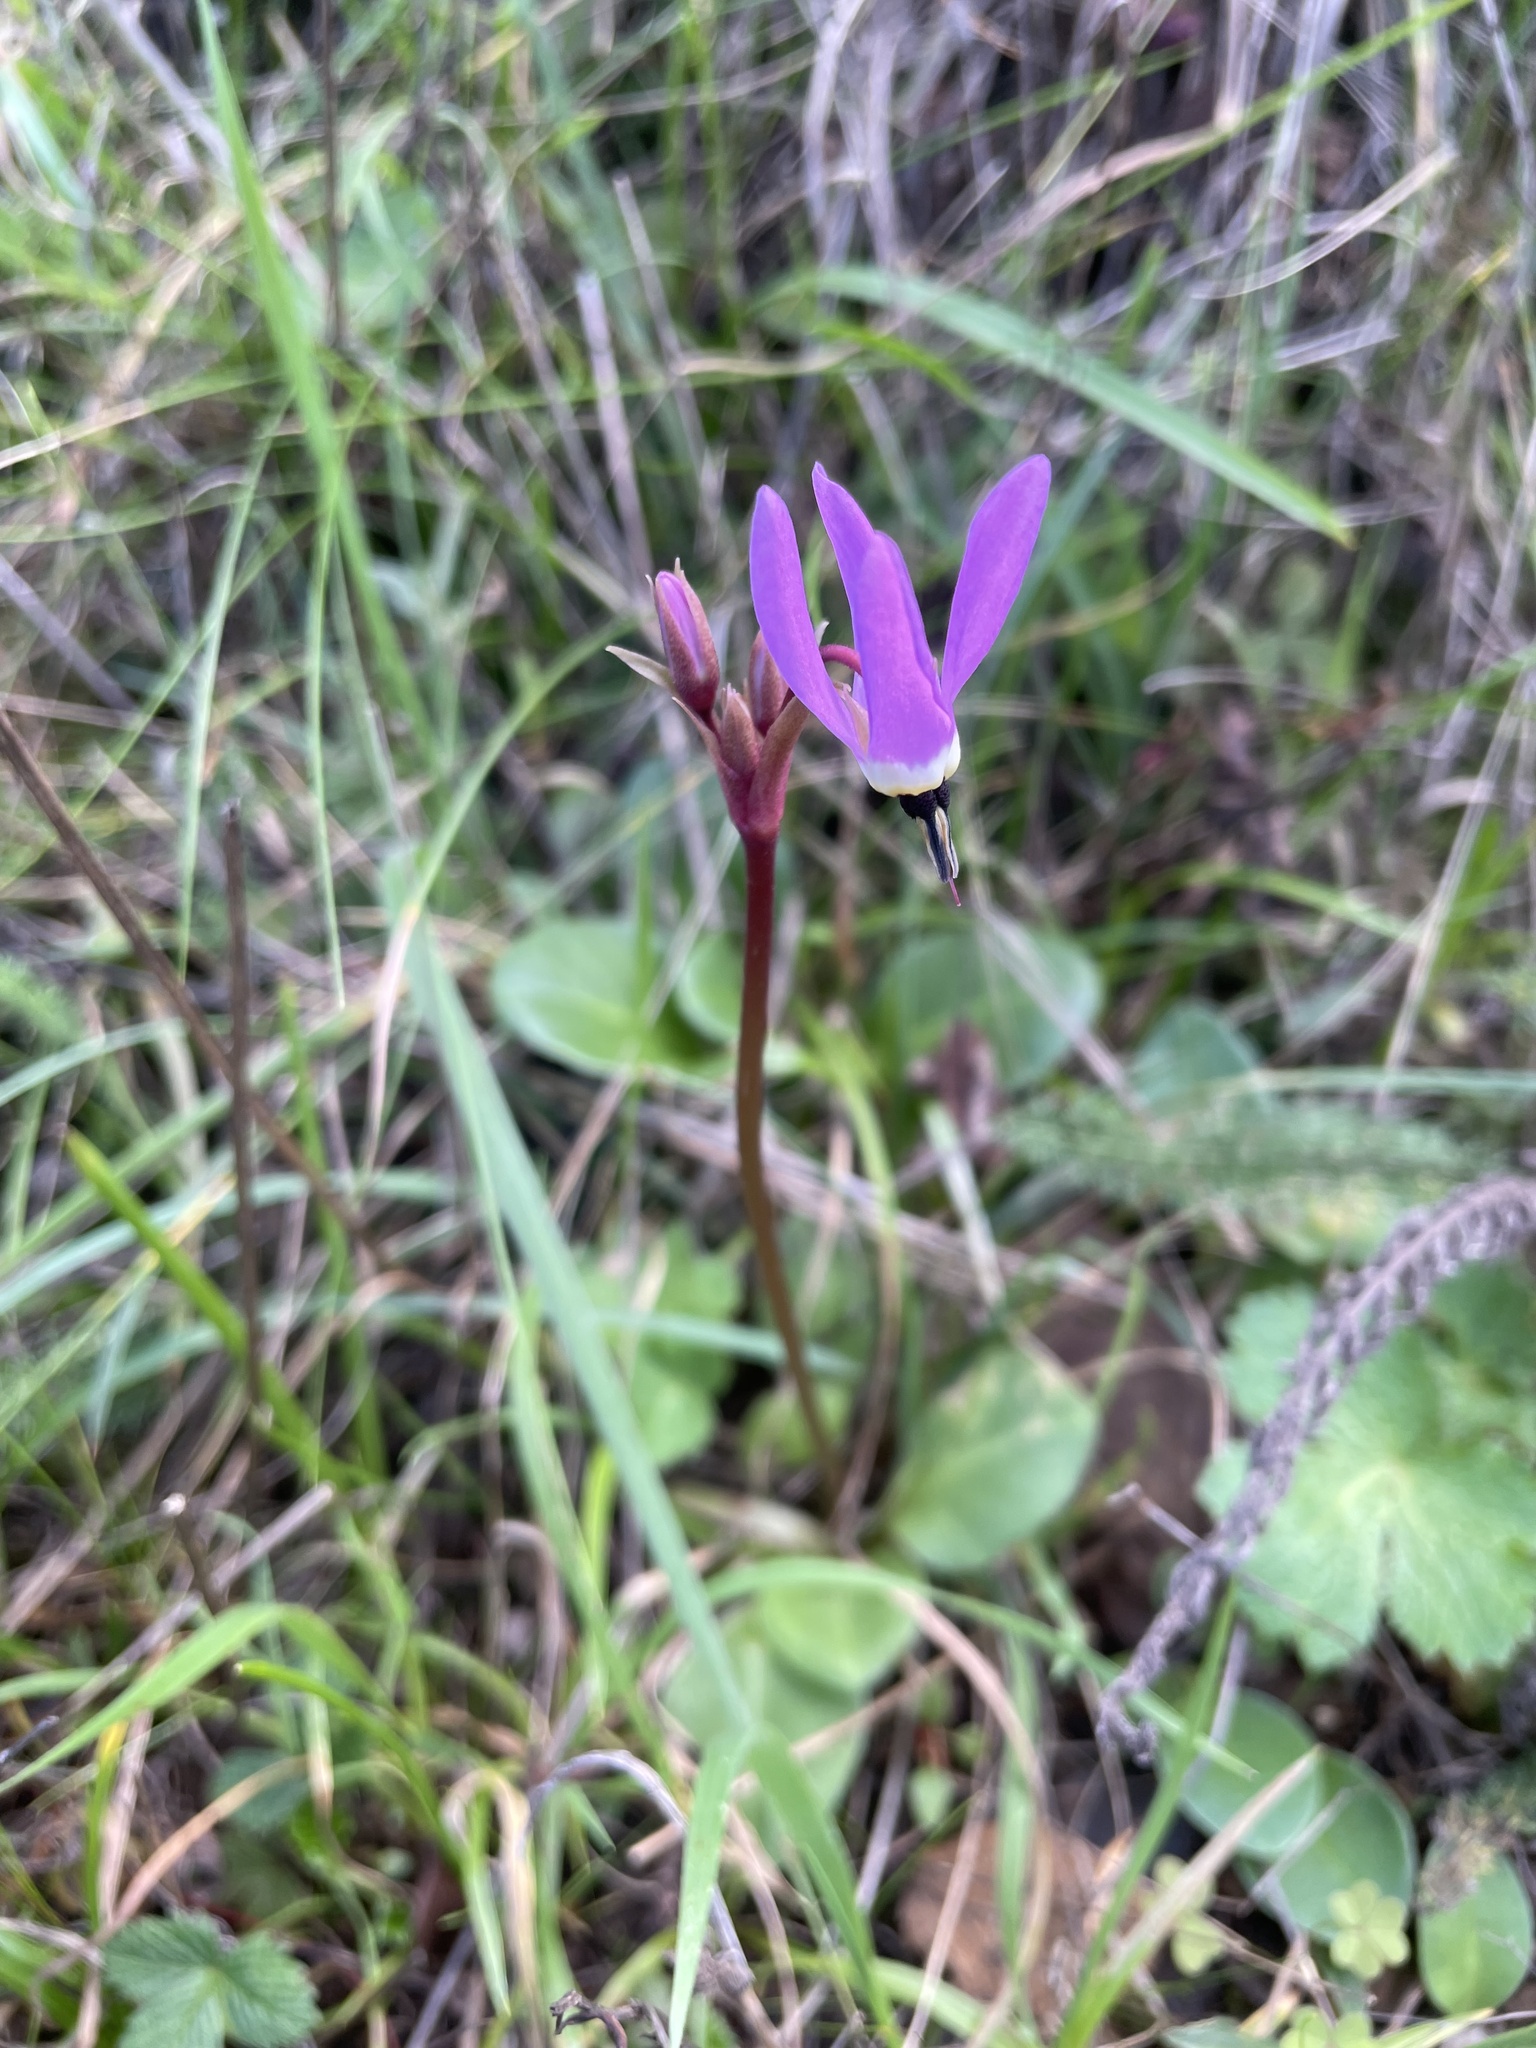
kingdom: Plantae
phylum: Tracheophyta
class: Magnoliopsida
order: Ericales
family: Primulaceae
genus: Dodecatheon
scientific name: Dodecatheon hendersonii
